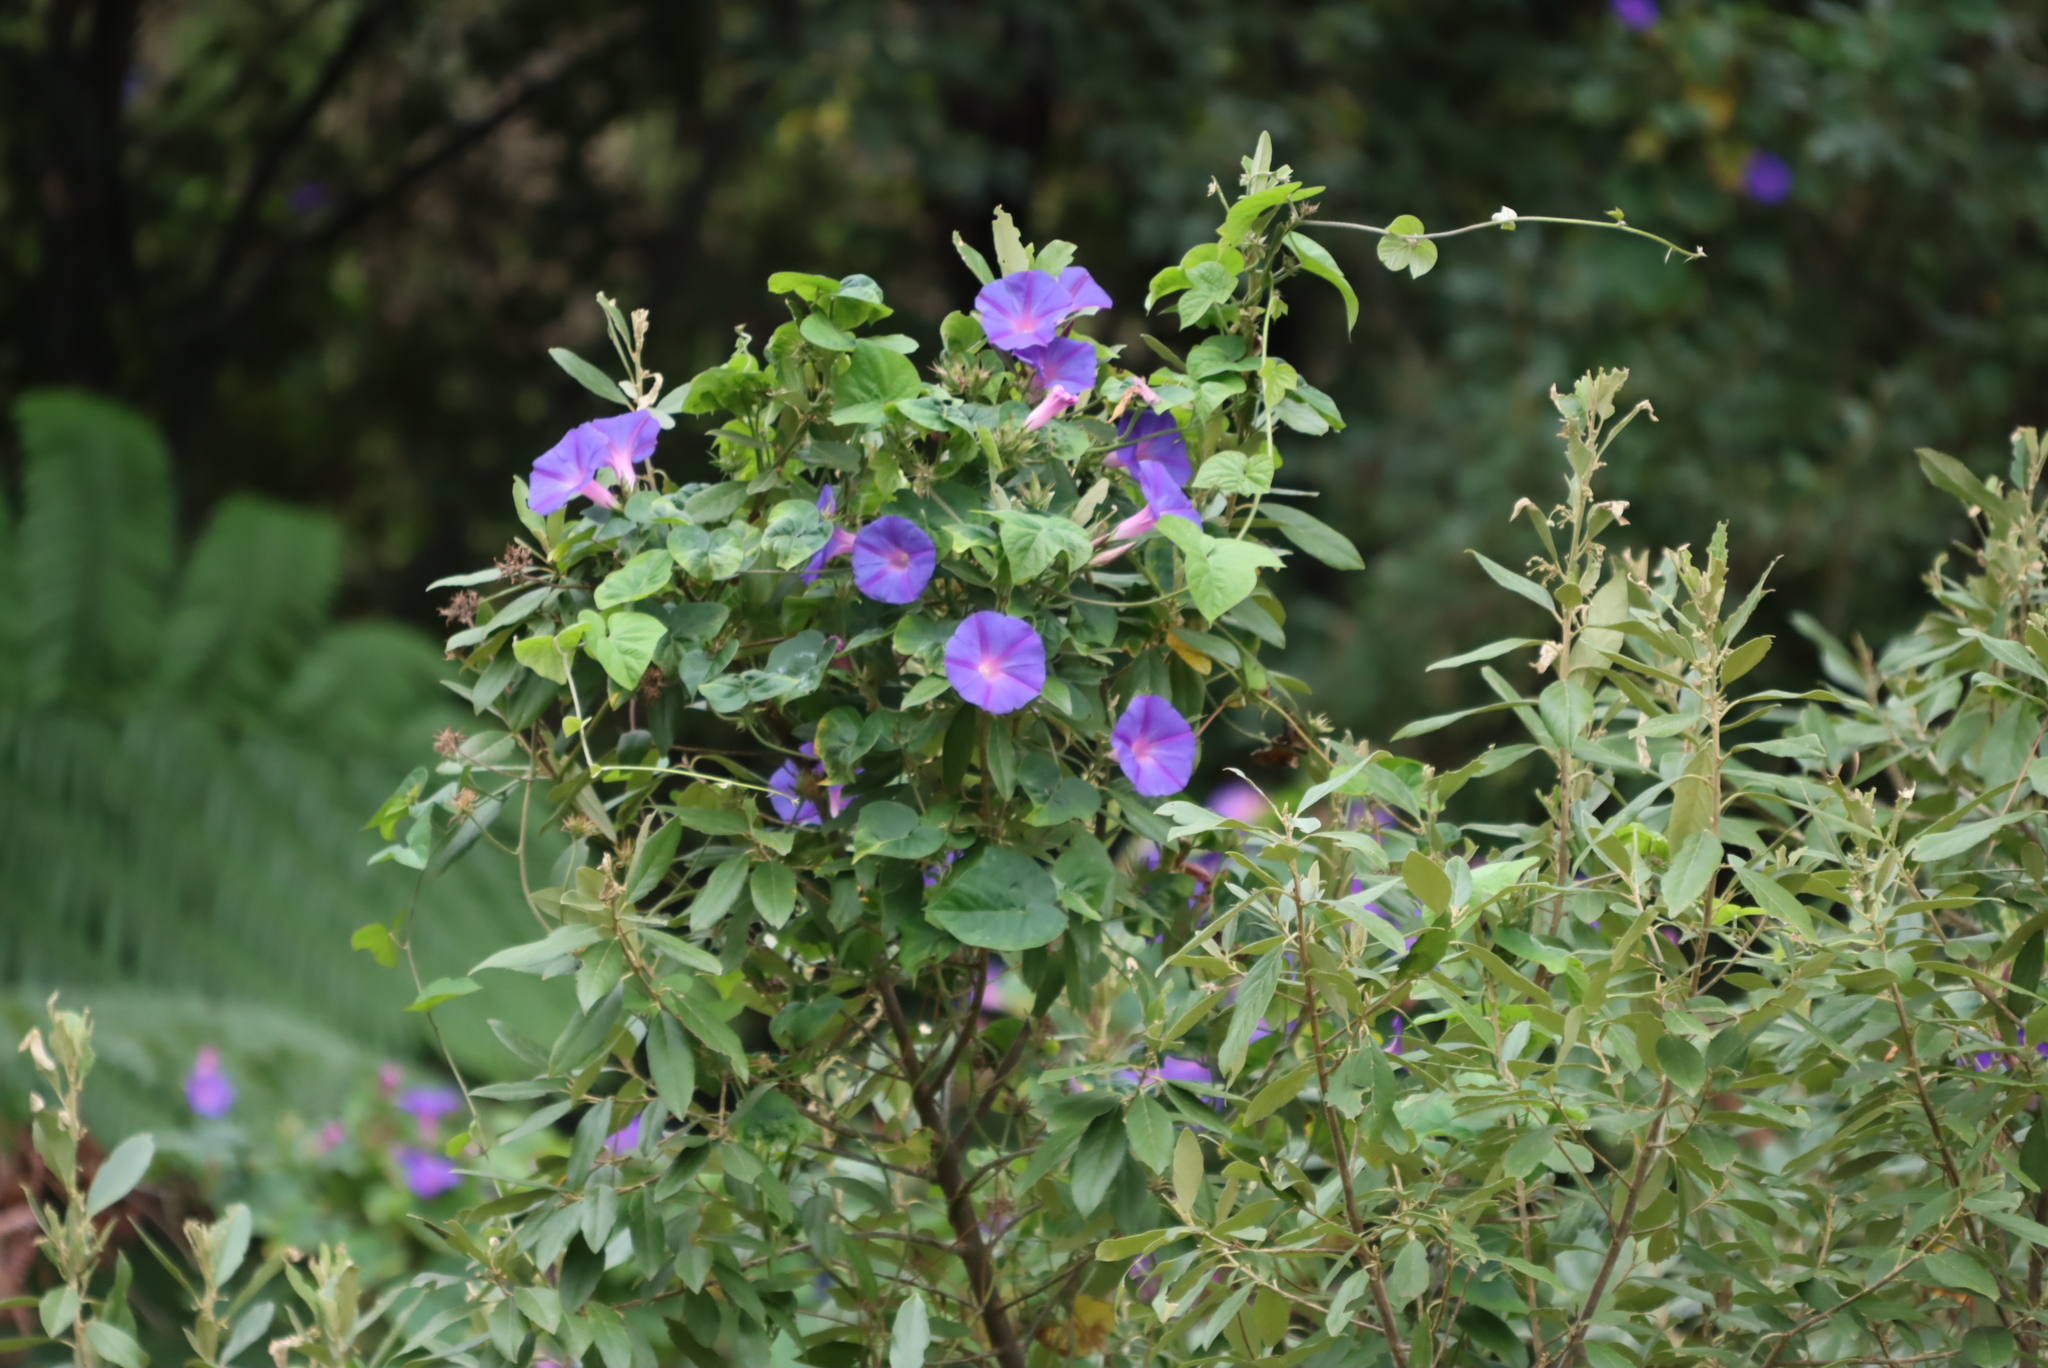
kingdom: Plantae
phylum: Tracheophyta
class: Magnoliopsida
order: Solanales
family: Convolvulaceae
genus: Ipomoea
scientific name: Ipomoea indica
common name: Blue dawnflower
